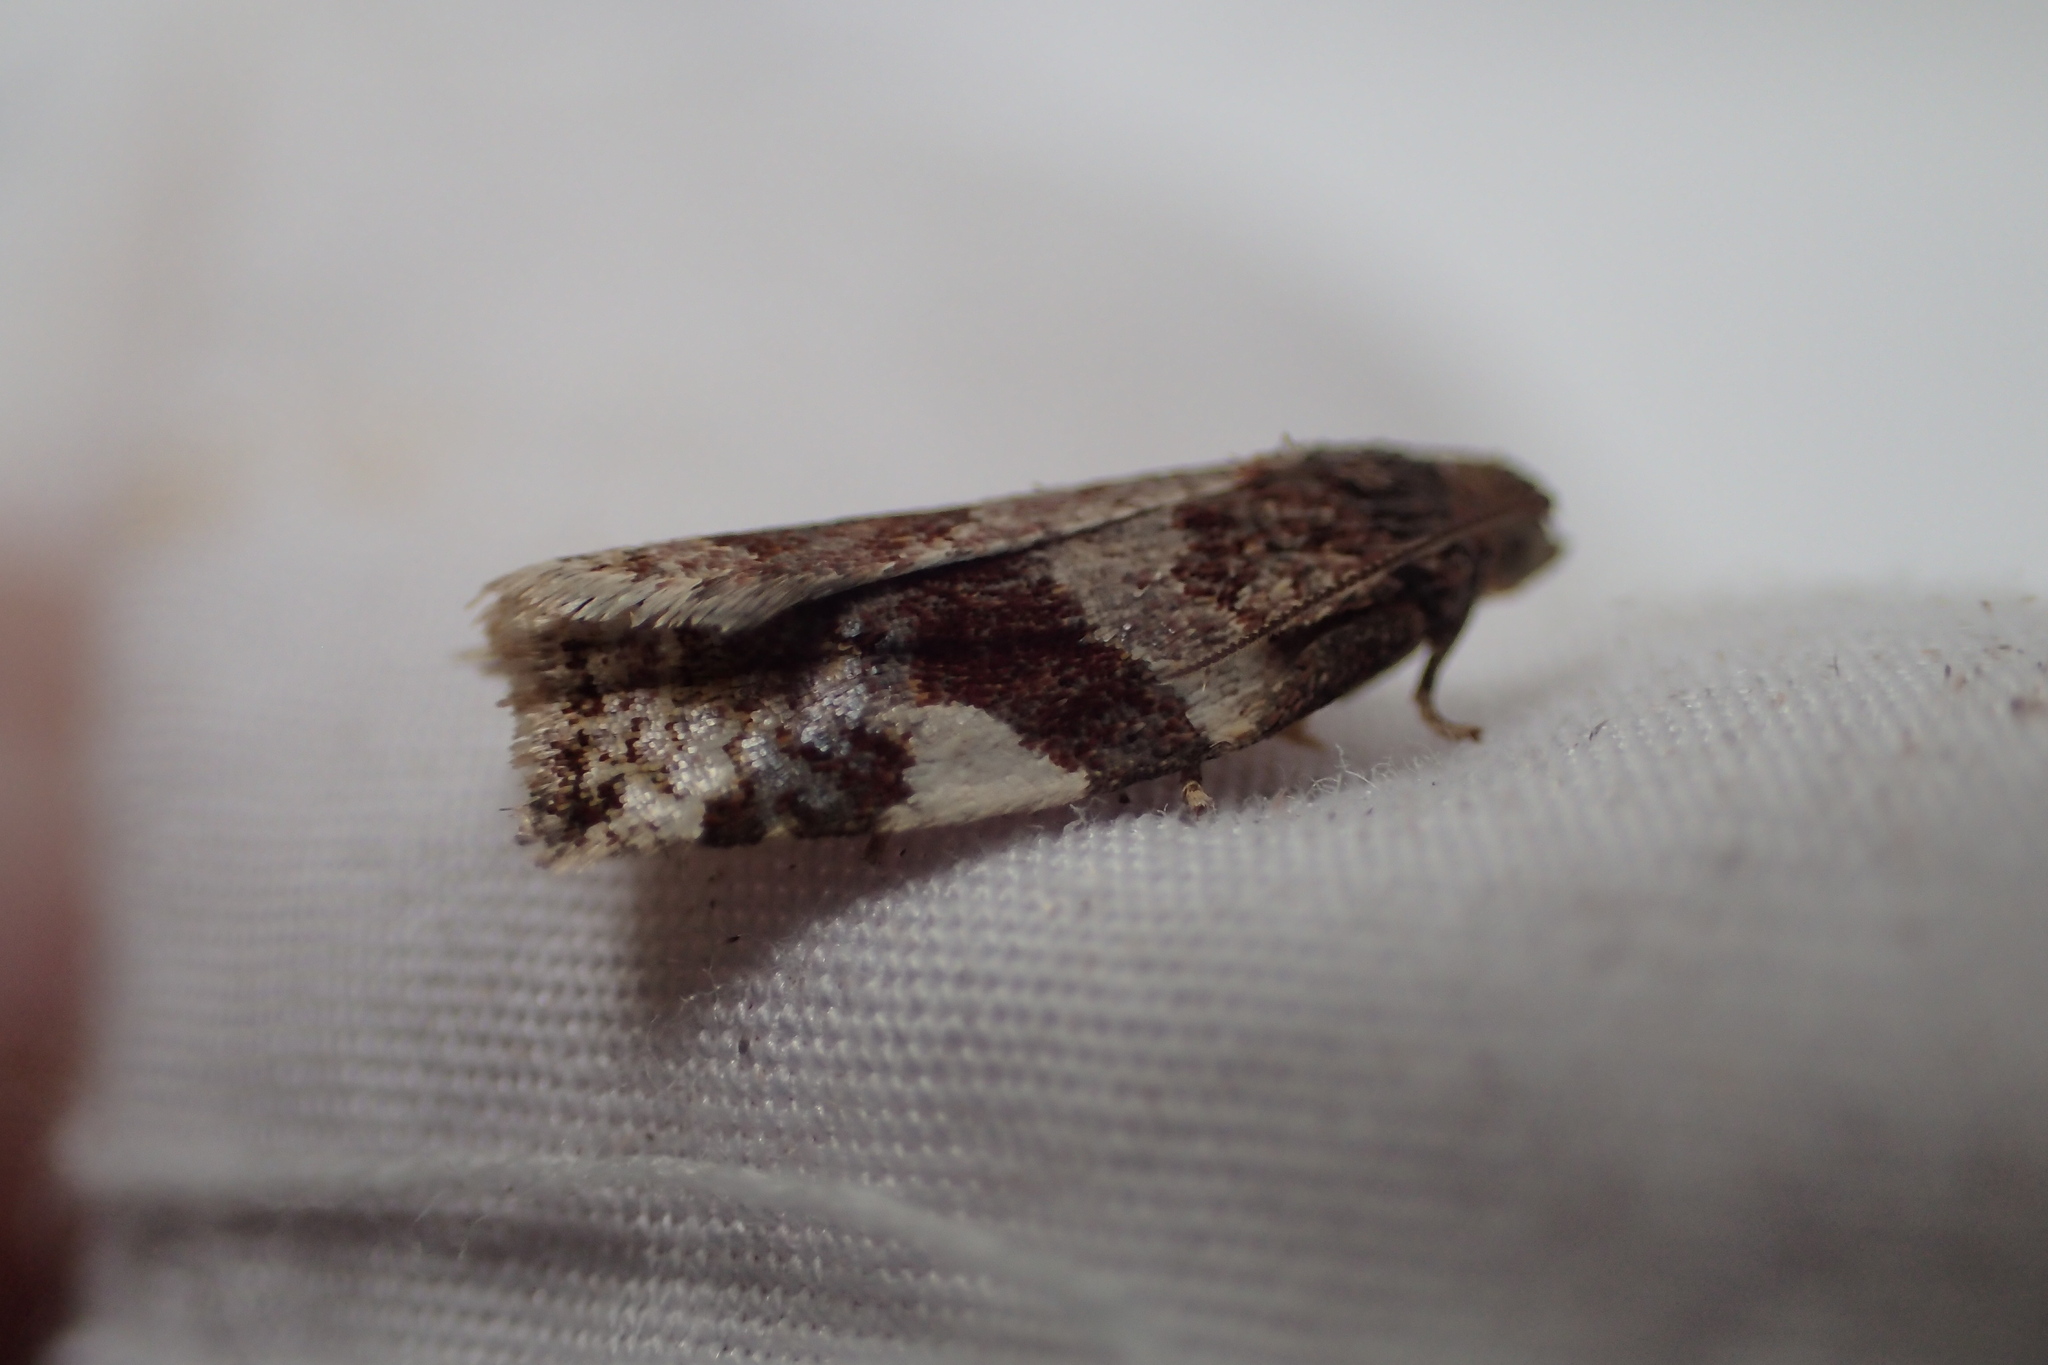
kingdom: Animalia
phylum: Arthropoda
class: Insecta
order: Lepidoptera
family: Tortricidae
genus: Clepsis
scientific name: Clepsis persicana
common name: White triangle tortrix
